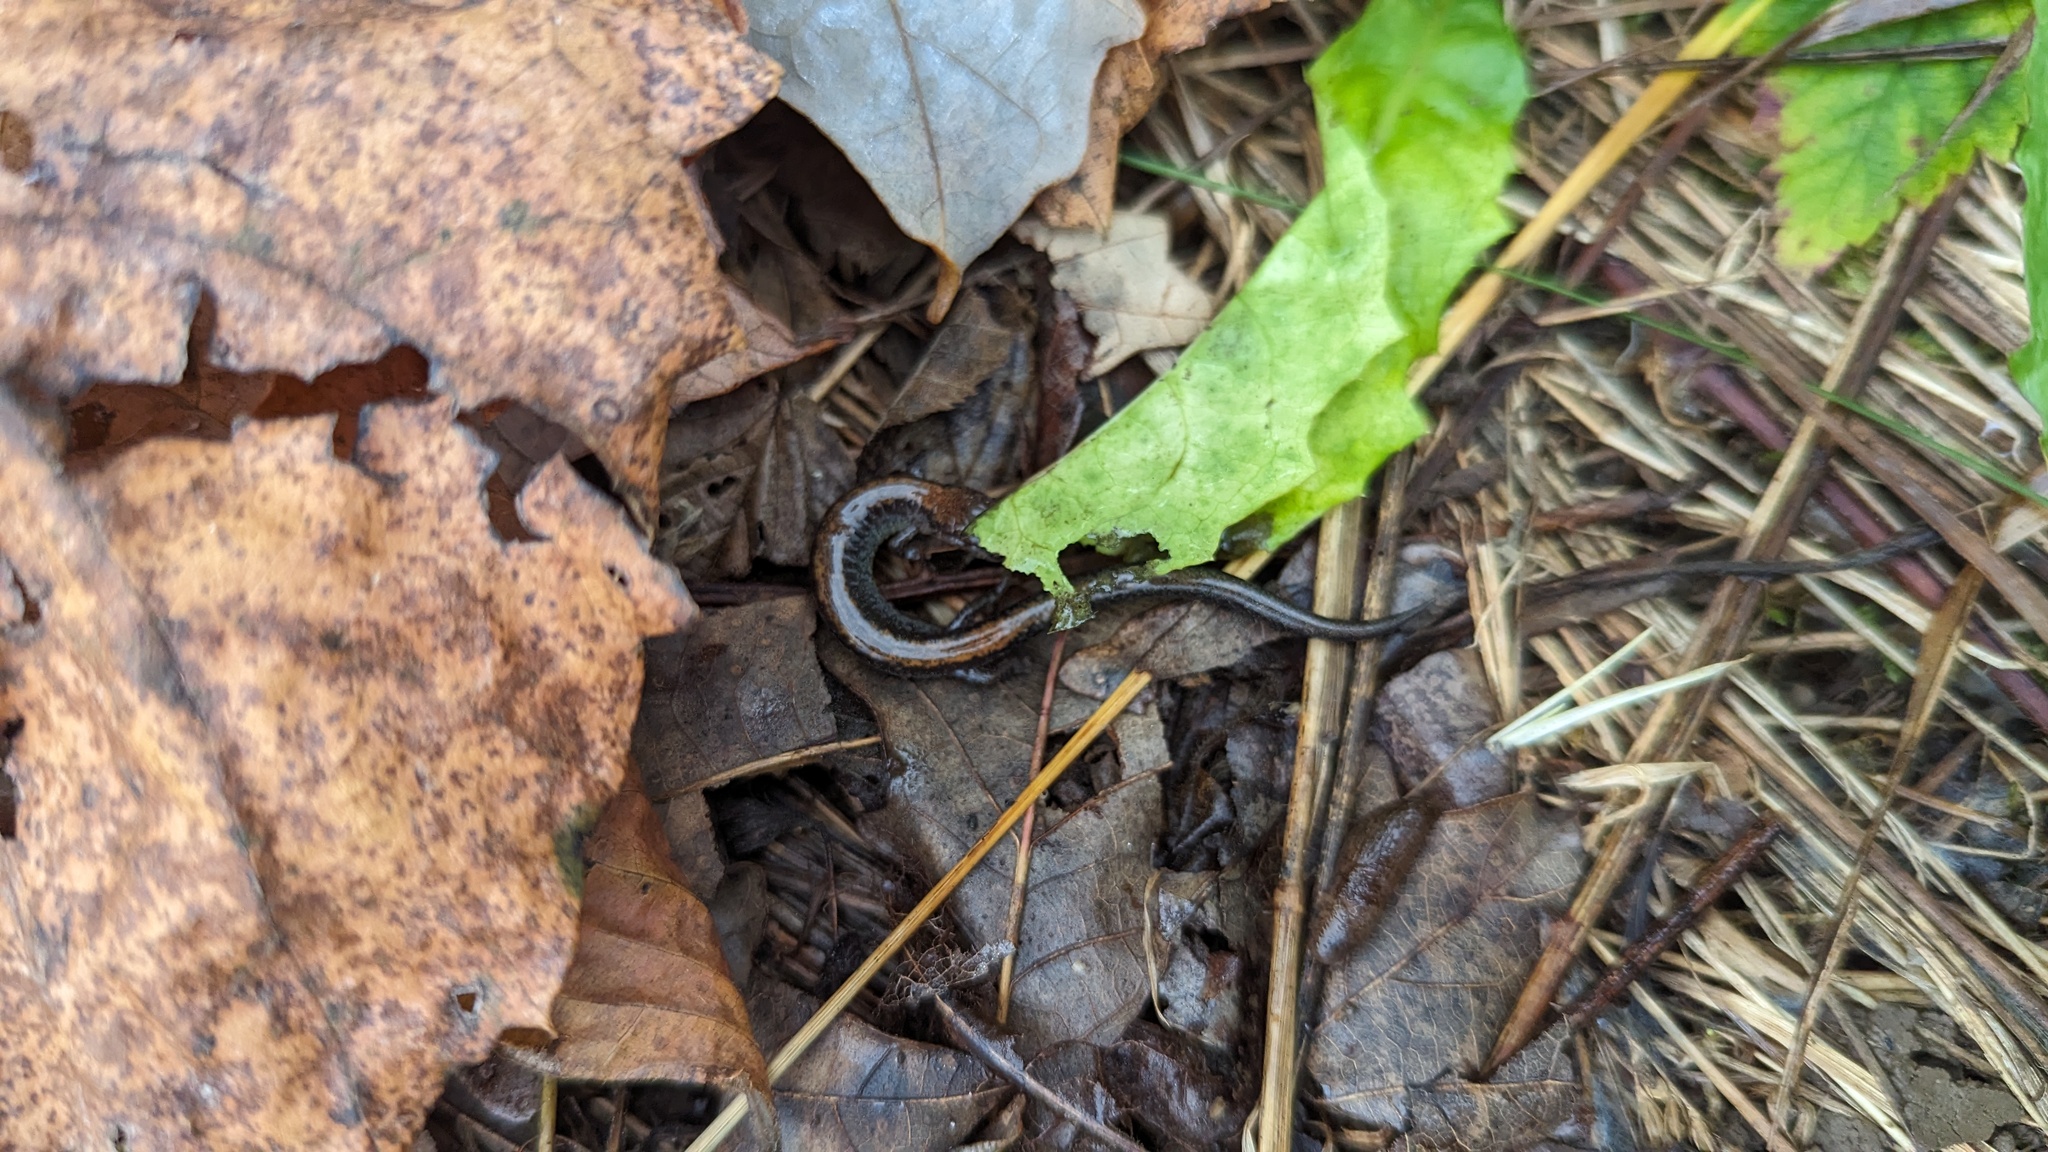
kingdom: Animalia
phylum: Chordata
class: Amphibia
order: Caudata
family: Plethodontidae
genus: Plethodon
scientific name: Plethodon cinereus
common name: Redback salamander
